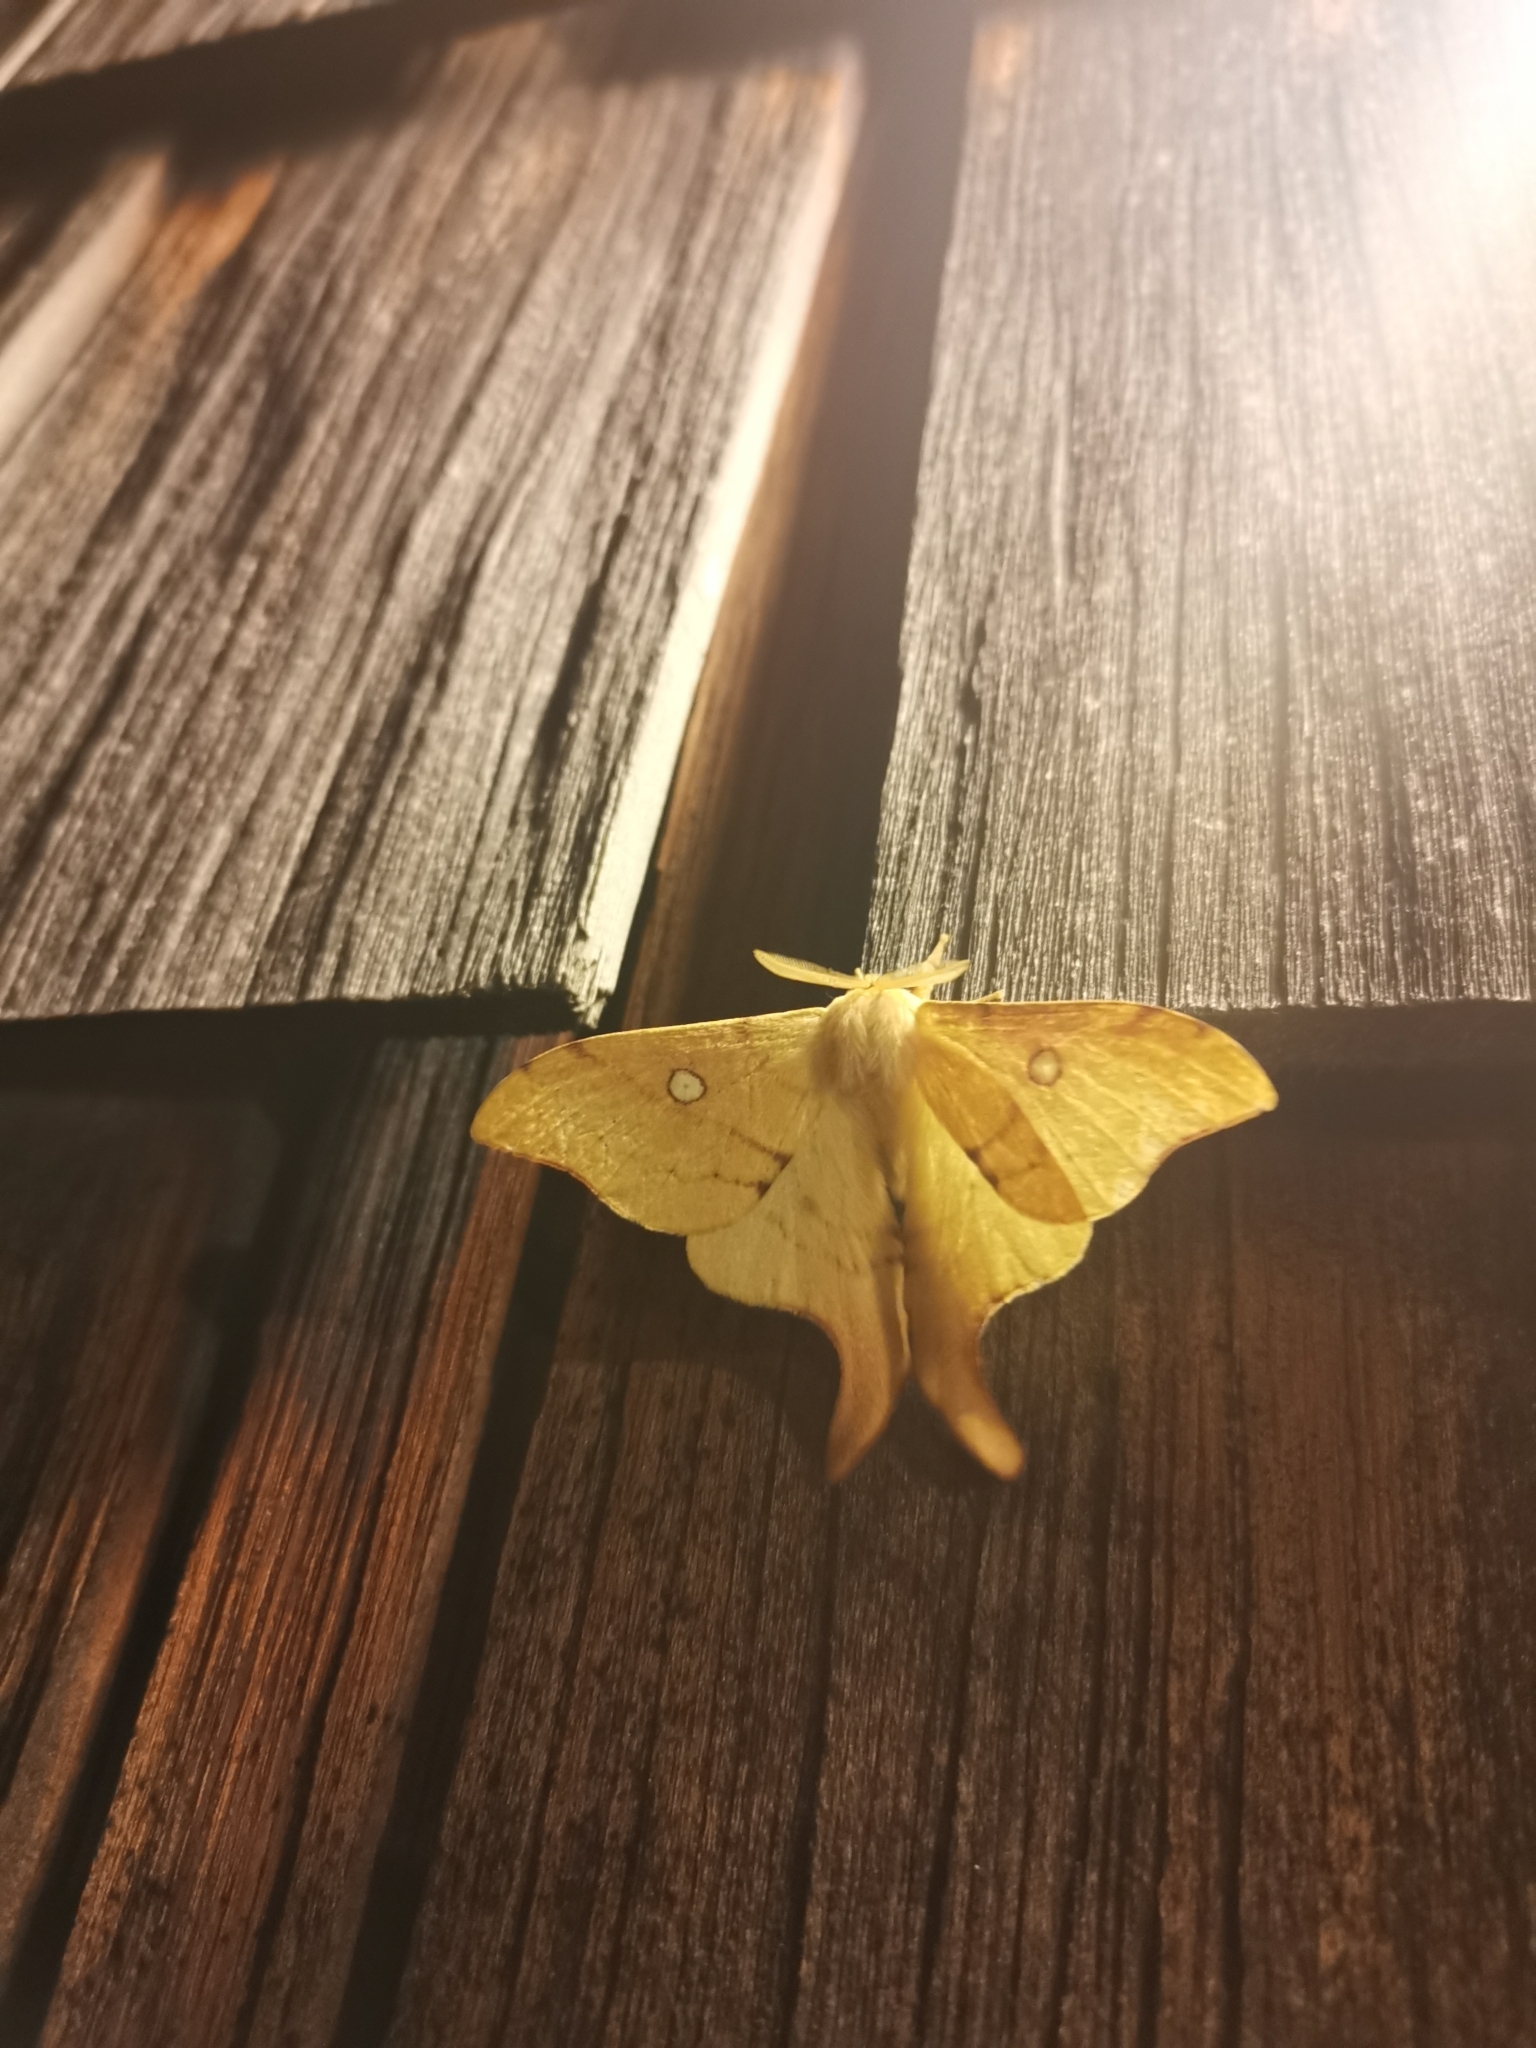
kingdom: Animalia
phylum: Arthropoda
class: Insecta
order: Lepidoptera
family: Saturniidae
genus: Cercophana
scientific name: Cercophana venusta
